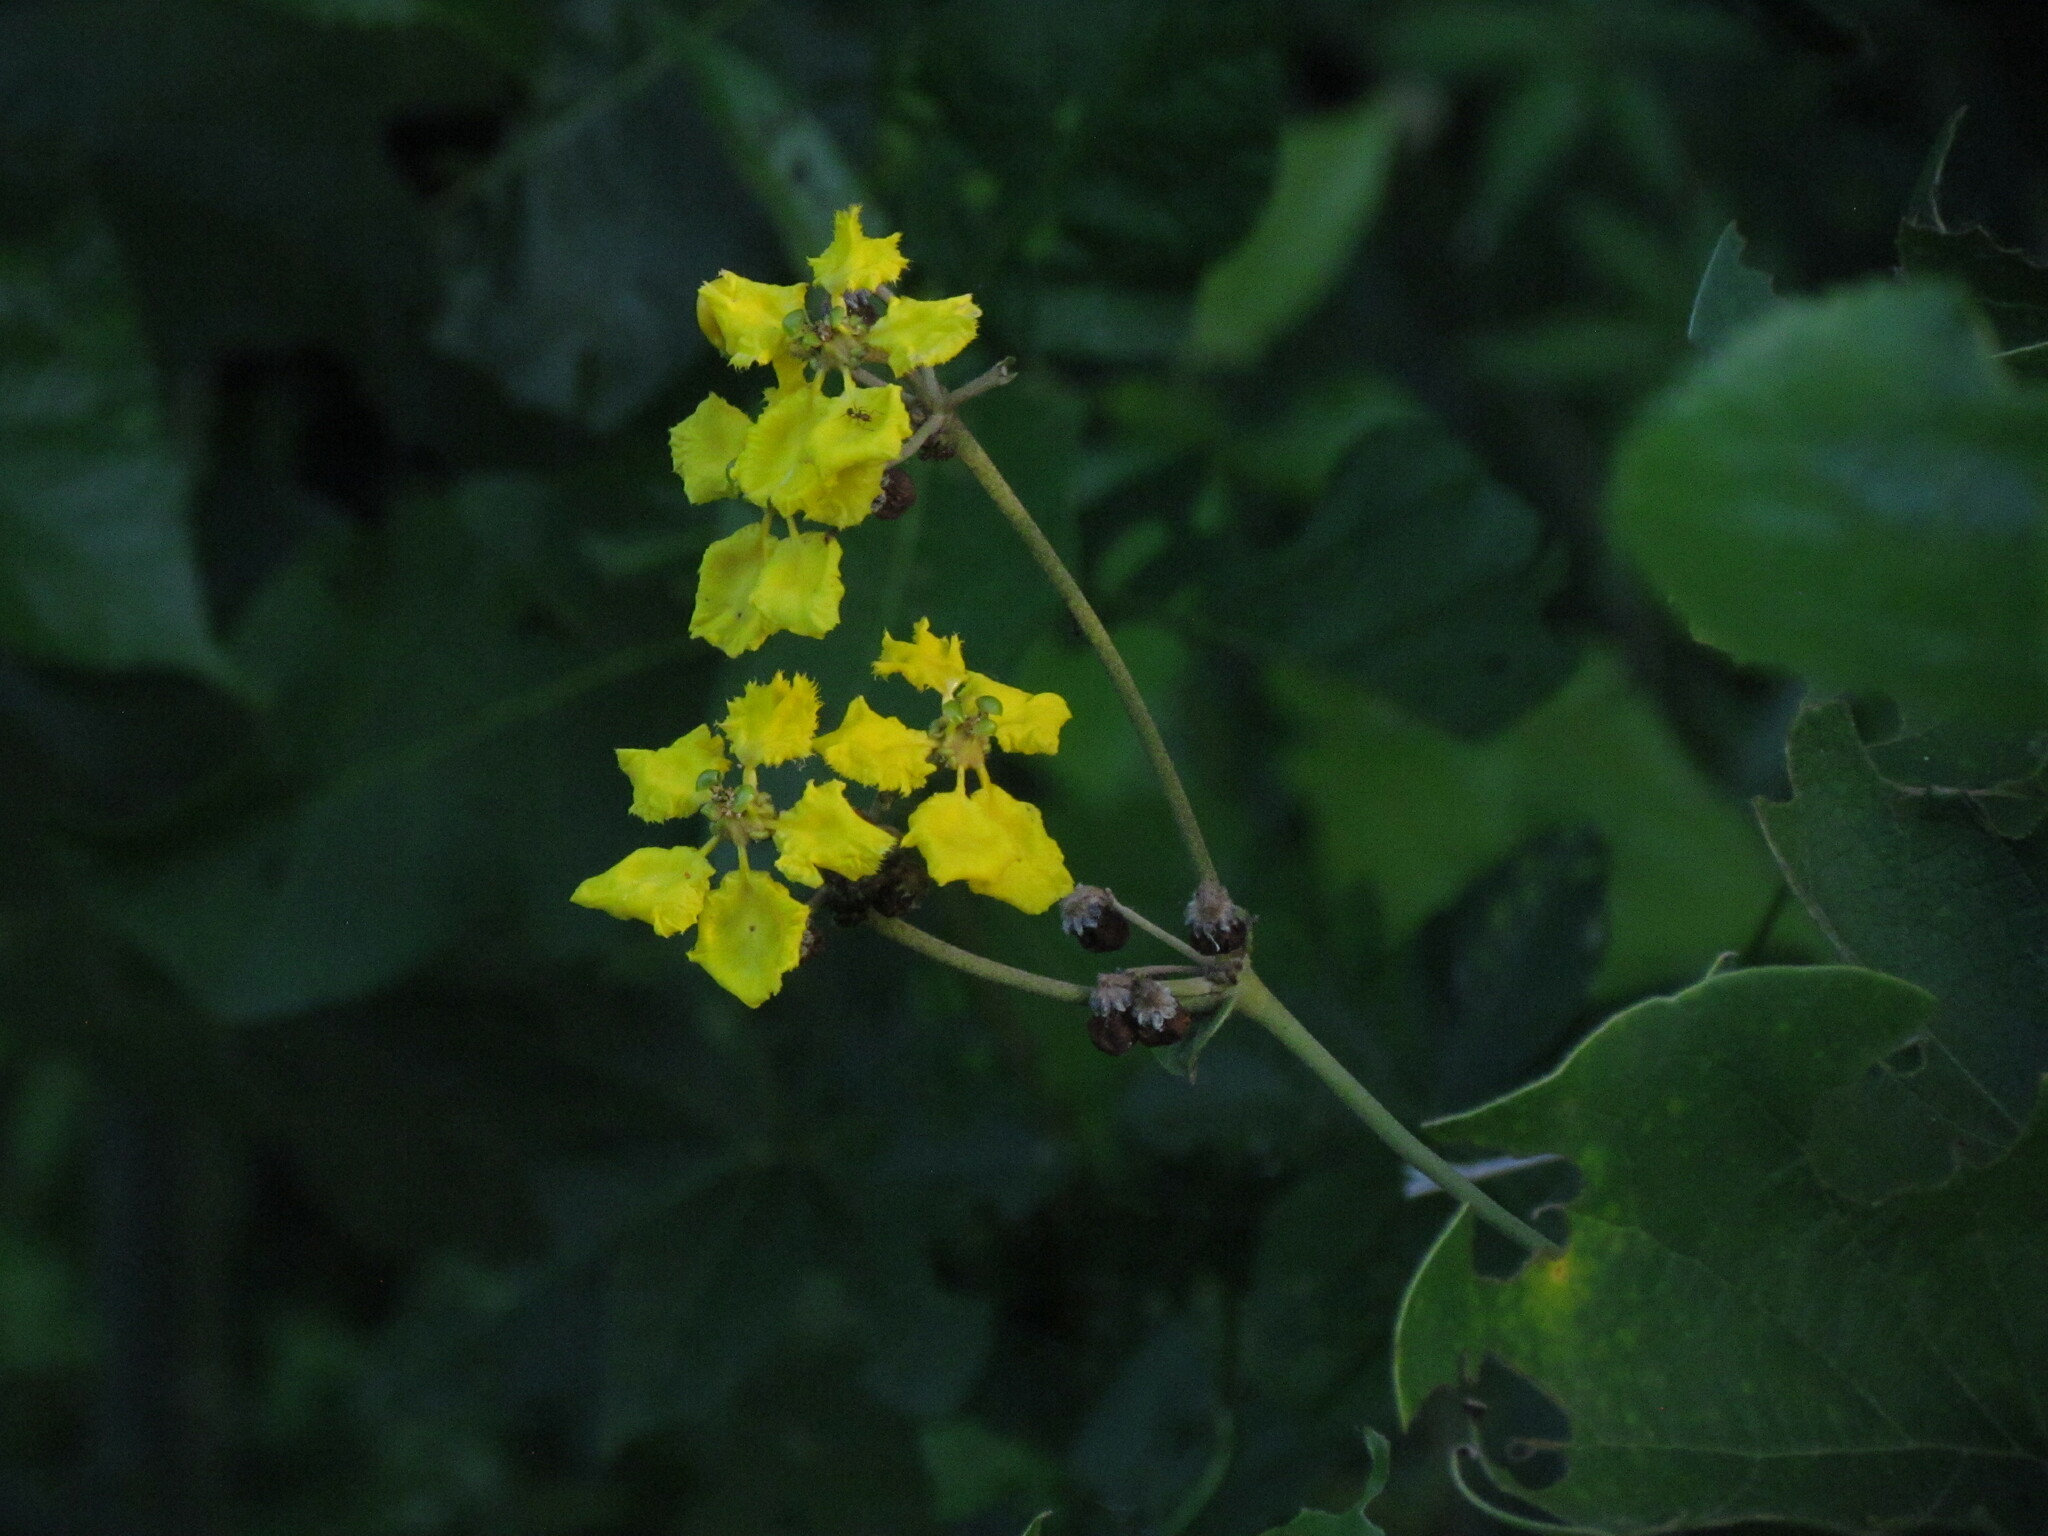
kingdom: Plantae
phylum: Tracheophyta
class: Magnoliopsida
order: Malpighiales
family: Malpighiaceae
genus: Stigmaphyllon
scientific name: Stigmaphyllon bonariense
